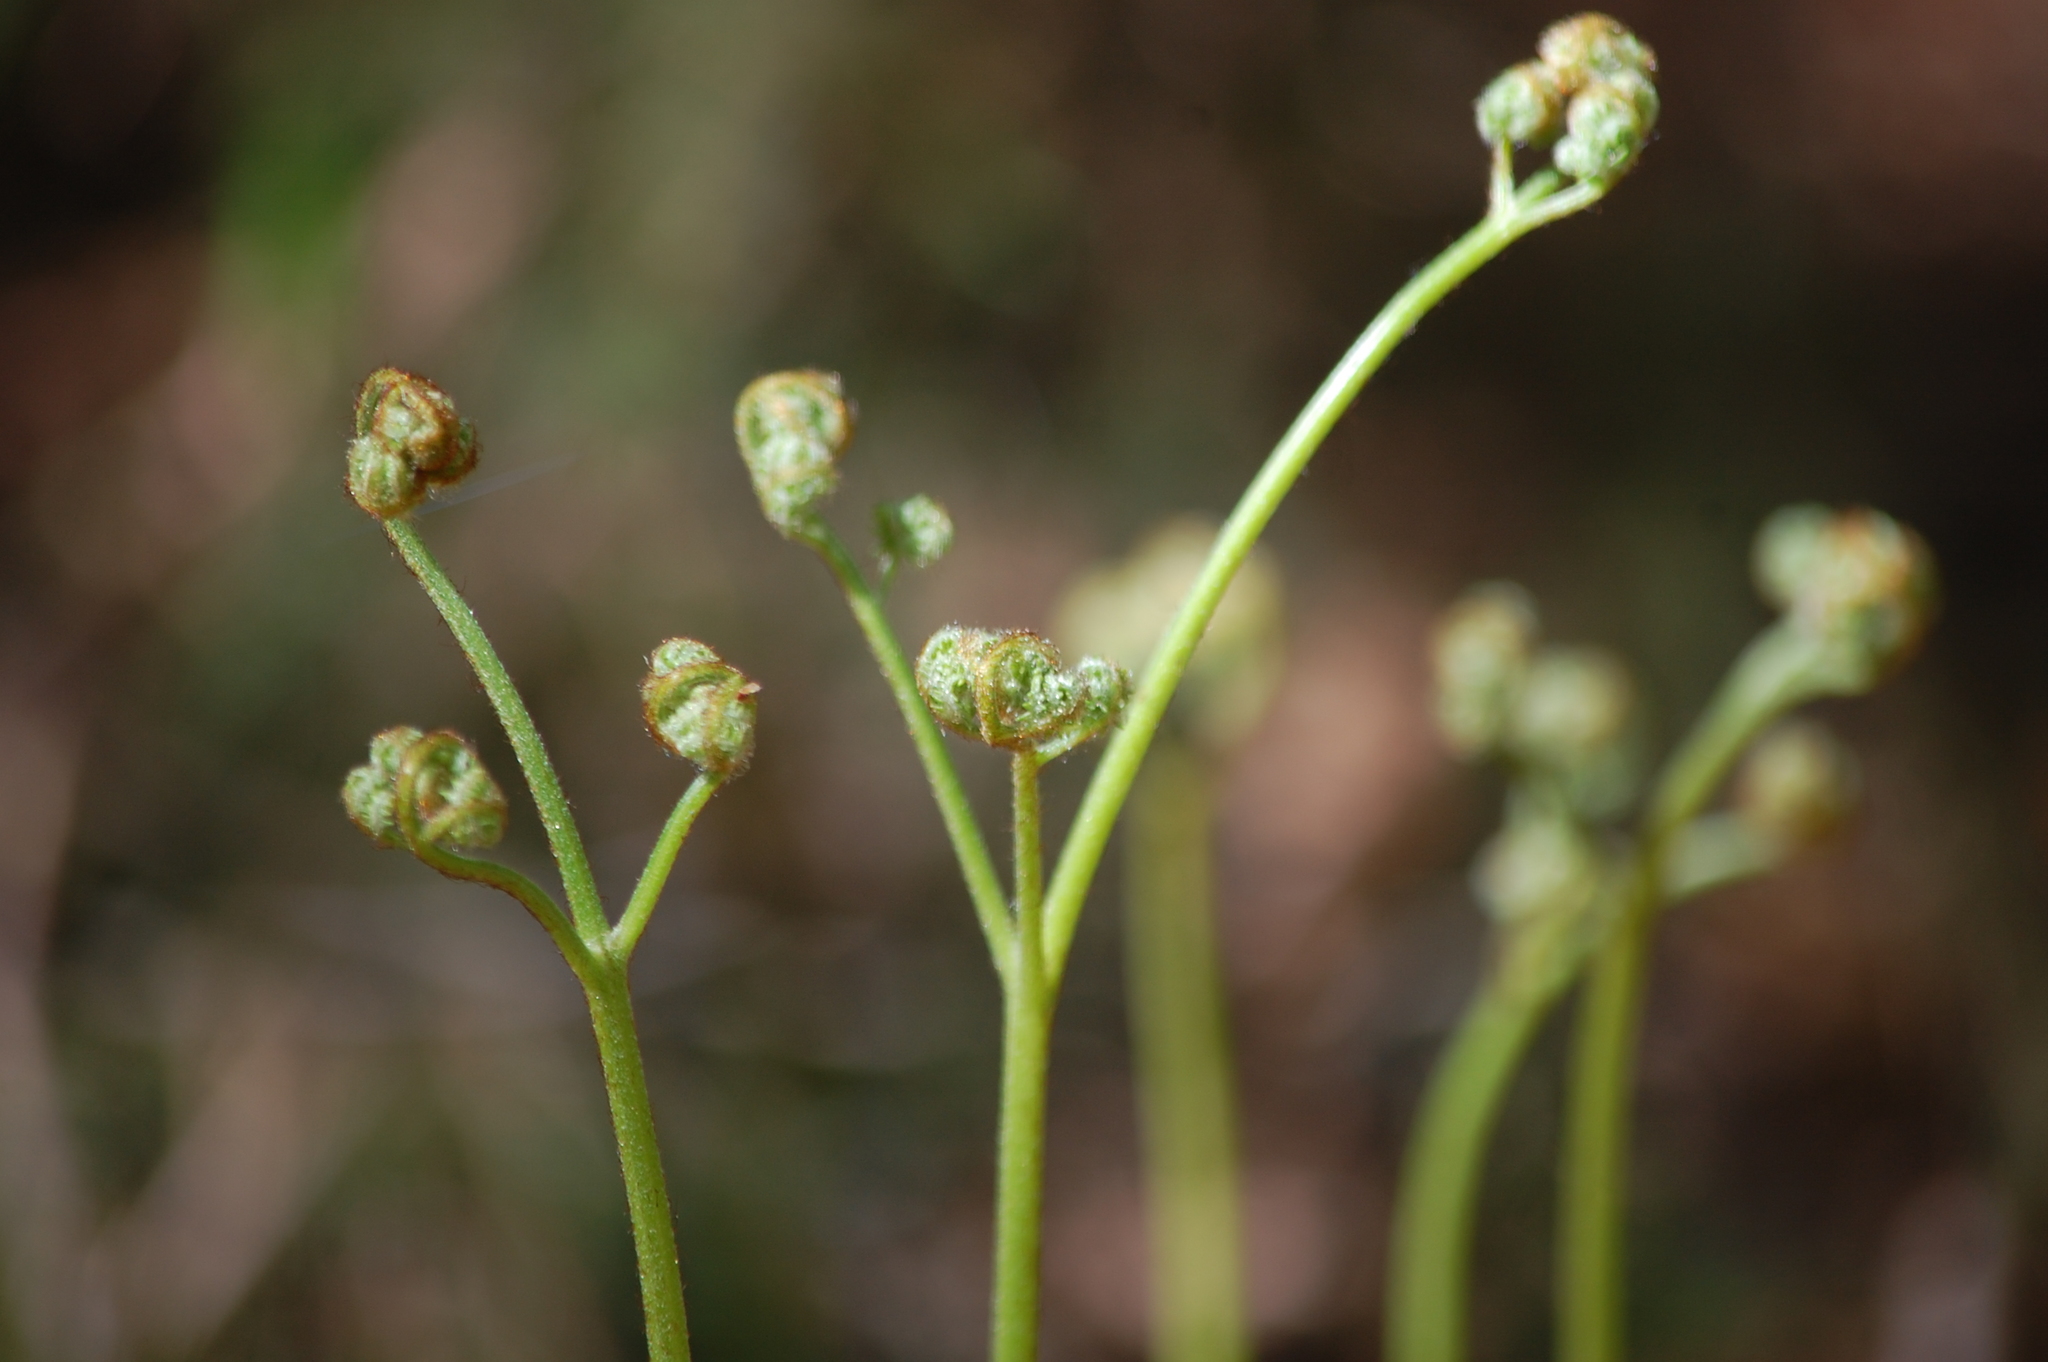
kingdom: Plantae
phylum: Tracheophyta
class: Polypodiopsida
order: Polypodiales
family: Dennstaedtiaceae
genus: Pteridium
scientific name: Pteridium aquilinum
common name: Bracken
